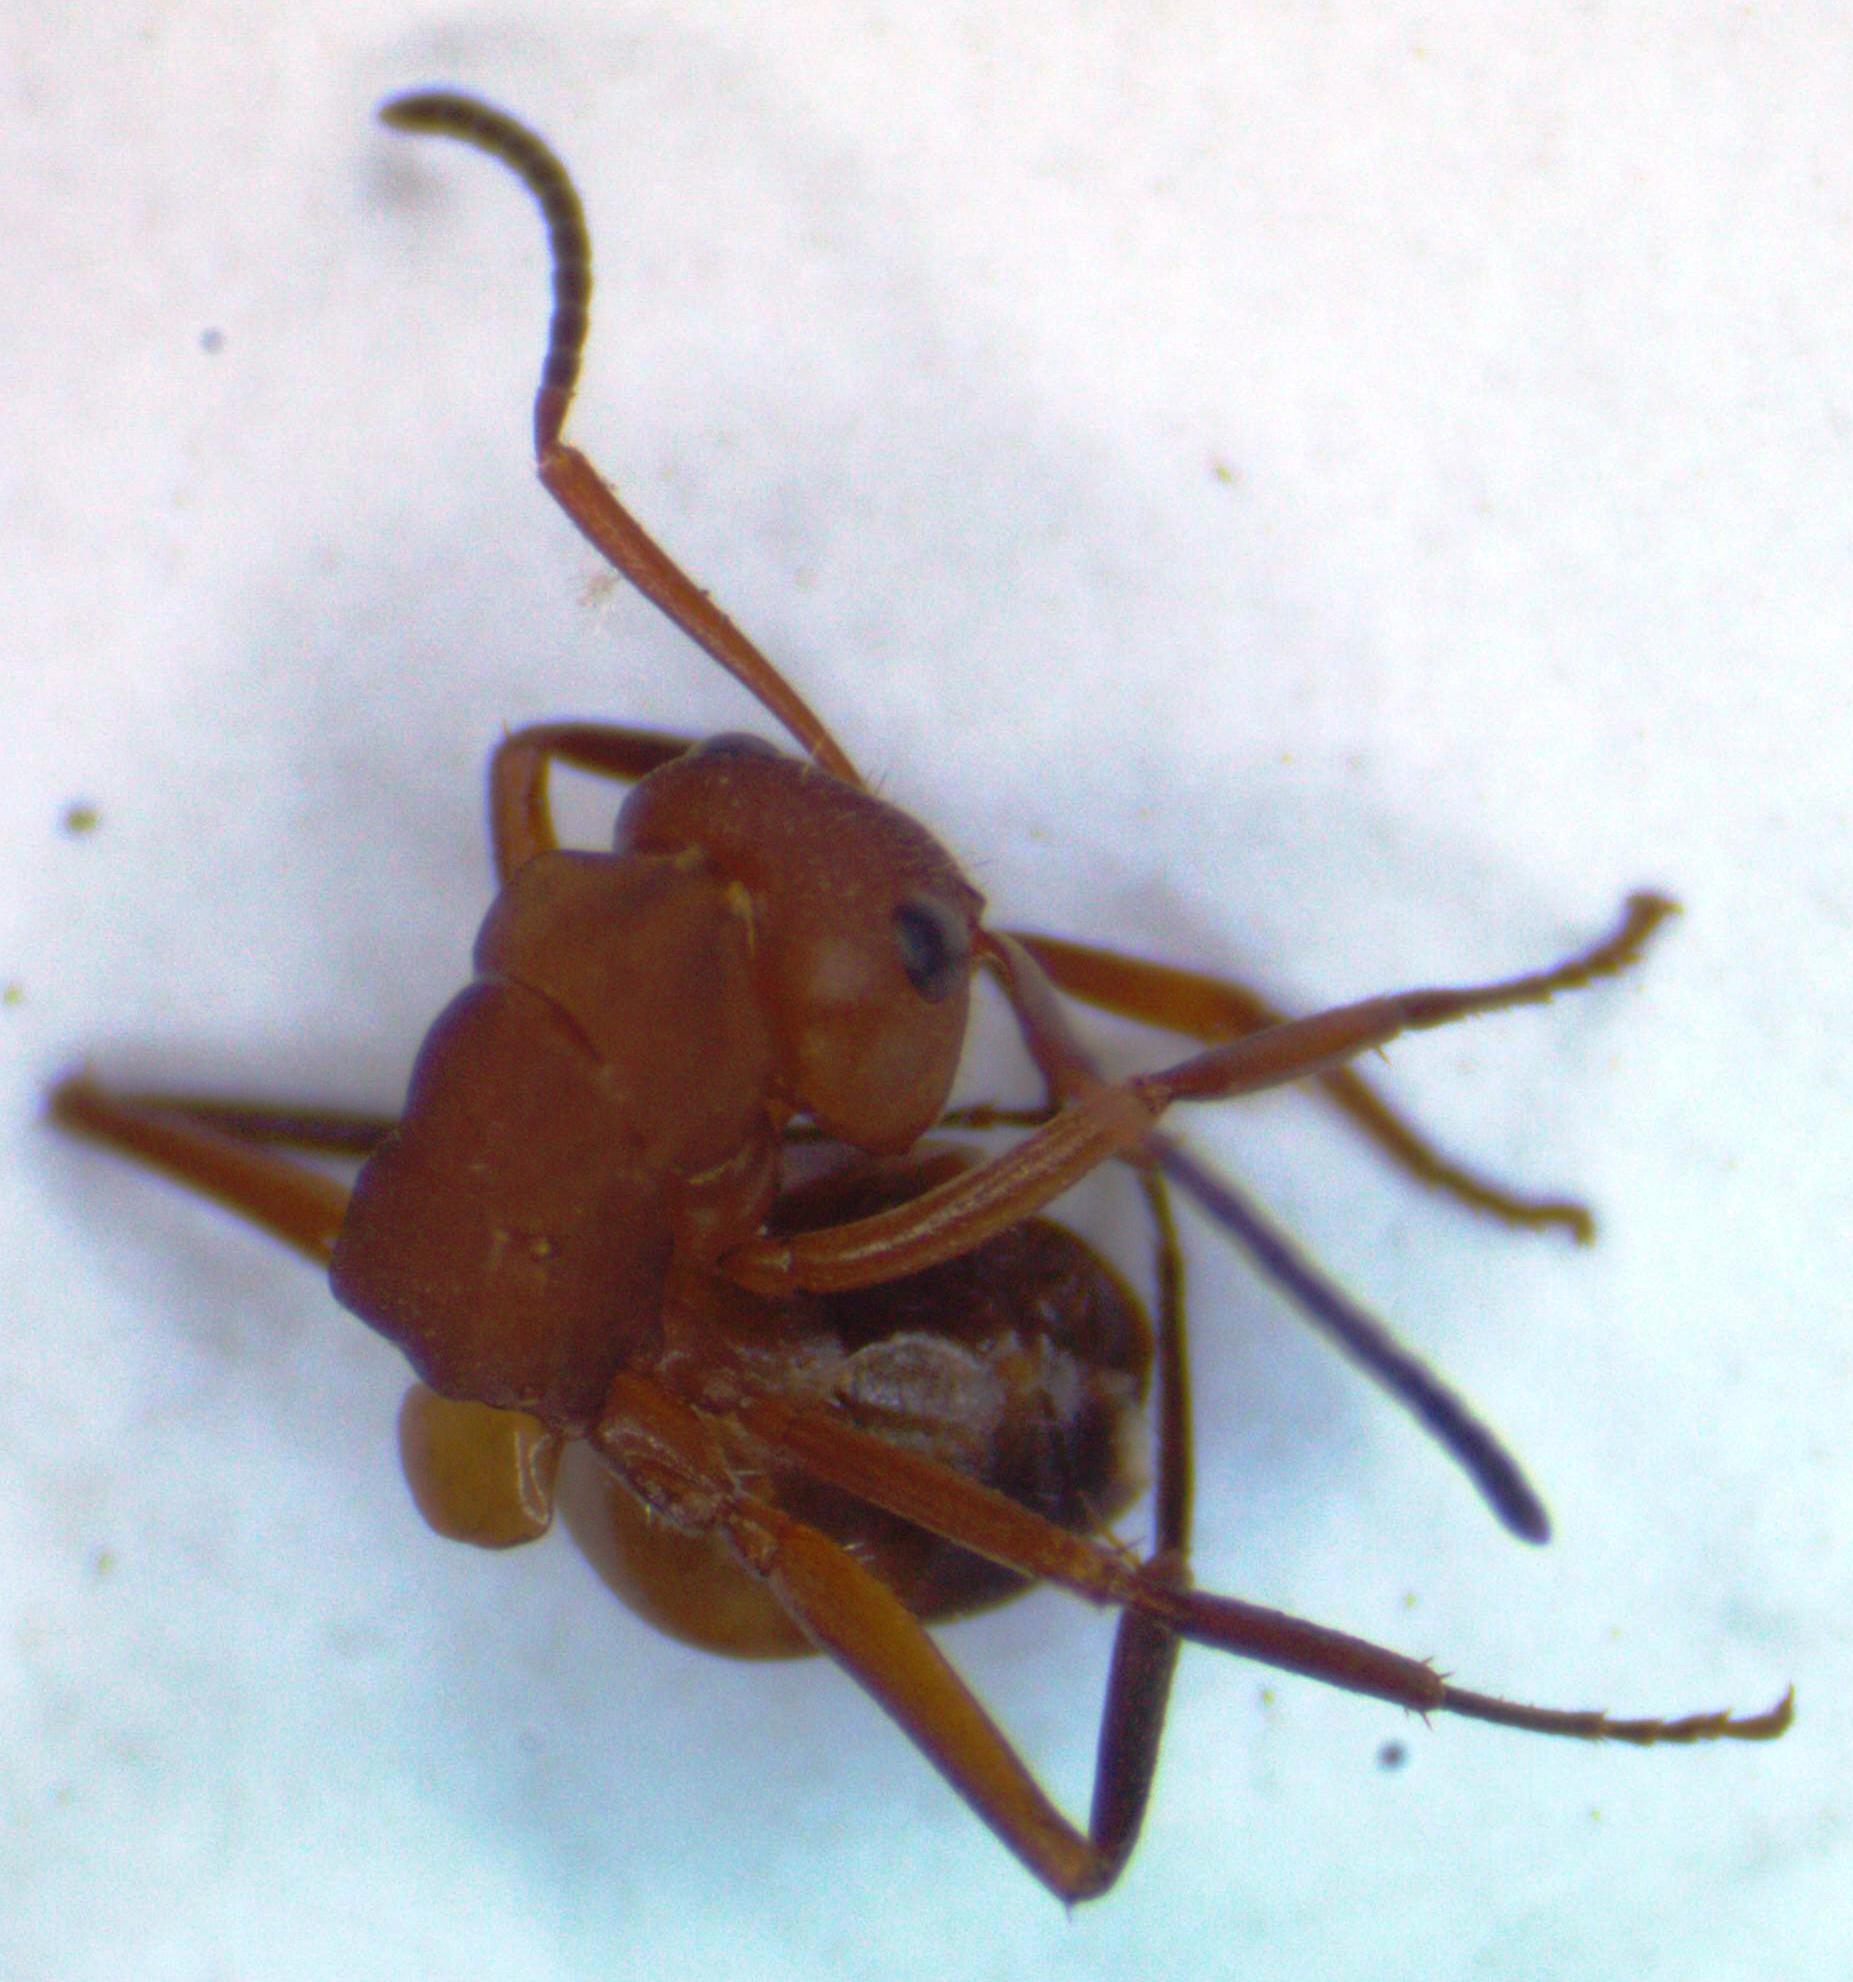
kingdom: Animalia
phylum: Arthropoda
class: Insecta
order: Hymenoptera
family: Formicidae
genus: Camponotus
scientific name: Camponotus rectangularis
